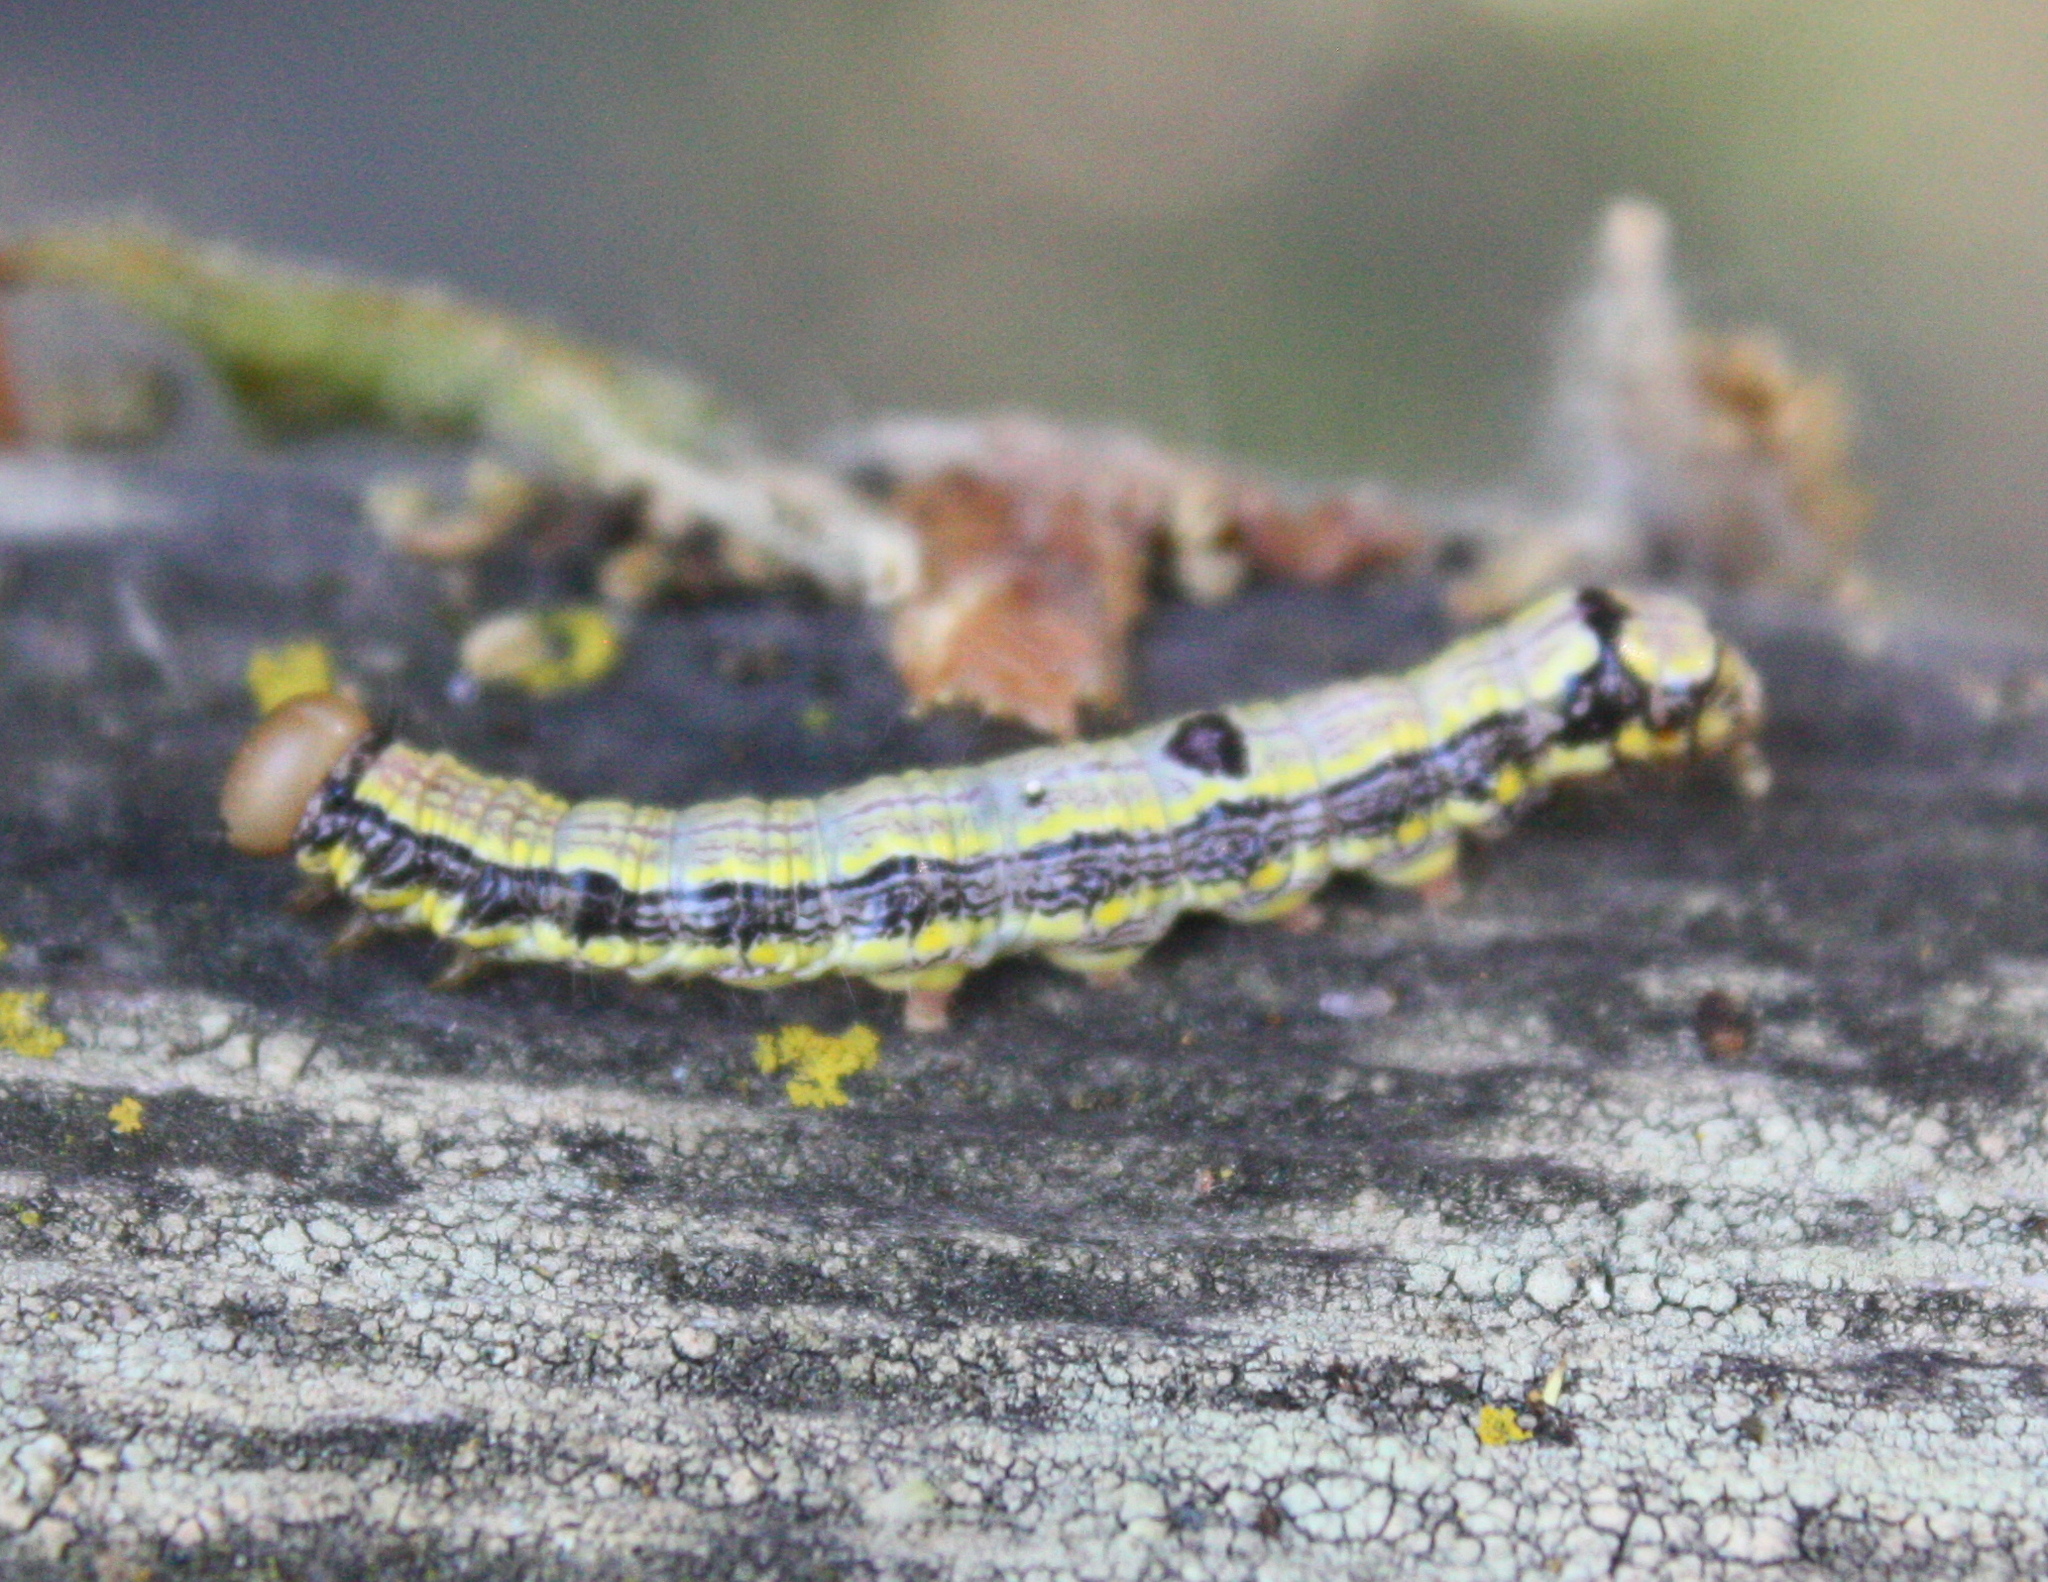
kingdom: Animalia
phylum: Arthropoda
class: Insecta
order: Lepidoptera
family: Notodontidae
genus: Phryganidia
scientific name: Phryganidia californica
